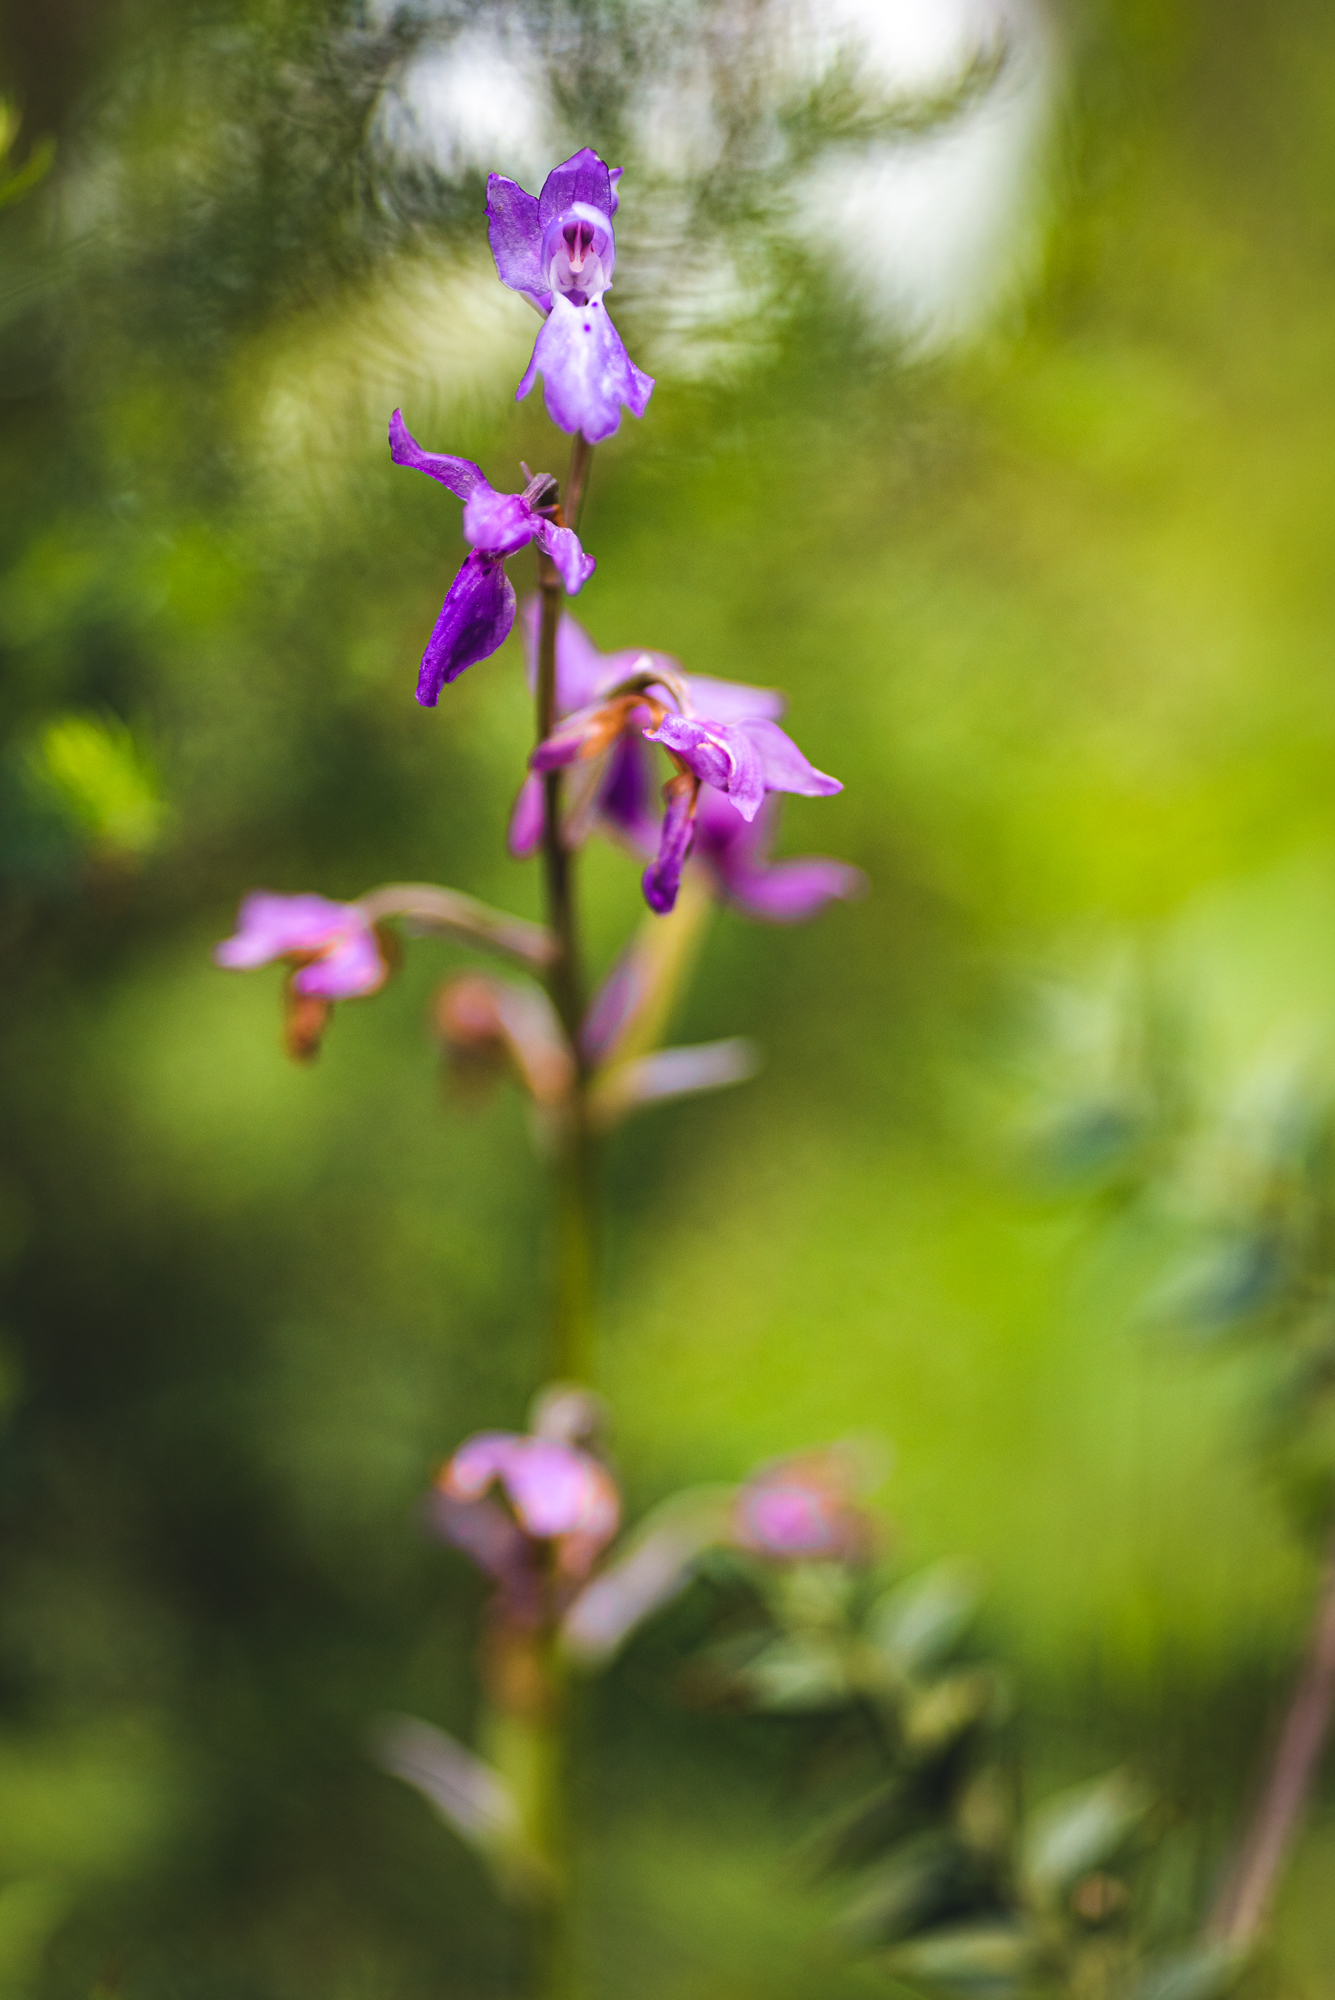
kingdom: Plantae
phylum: Tracheophyta
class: Liliopsida
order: Asparagales
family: Orchidaceae
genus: Orchis
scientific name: Orchis mascula
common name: Early-purple orchid
